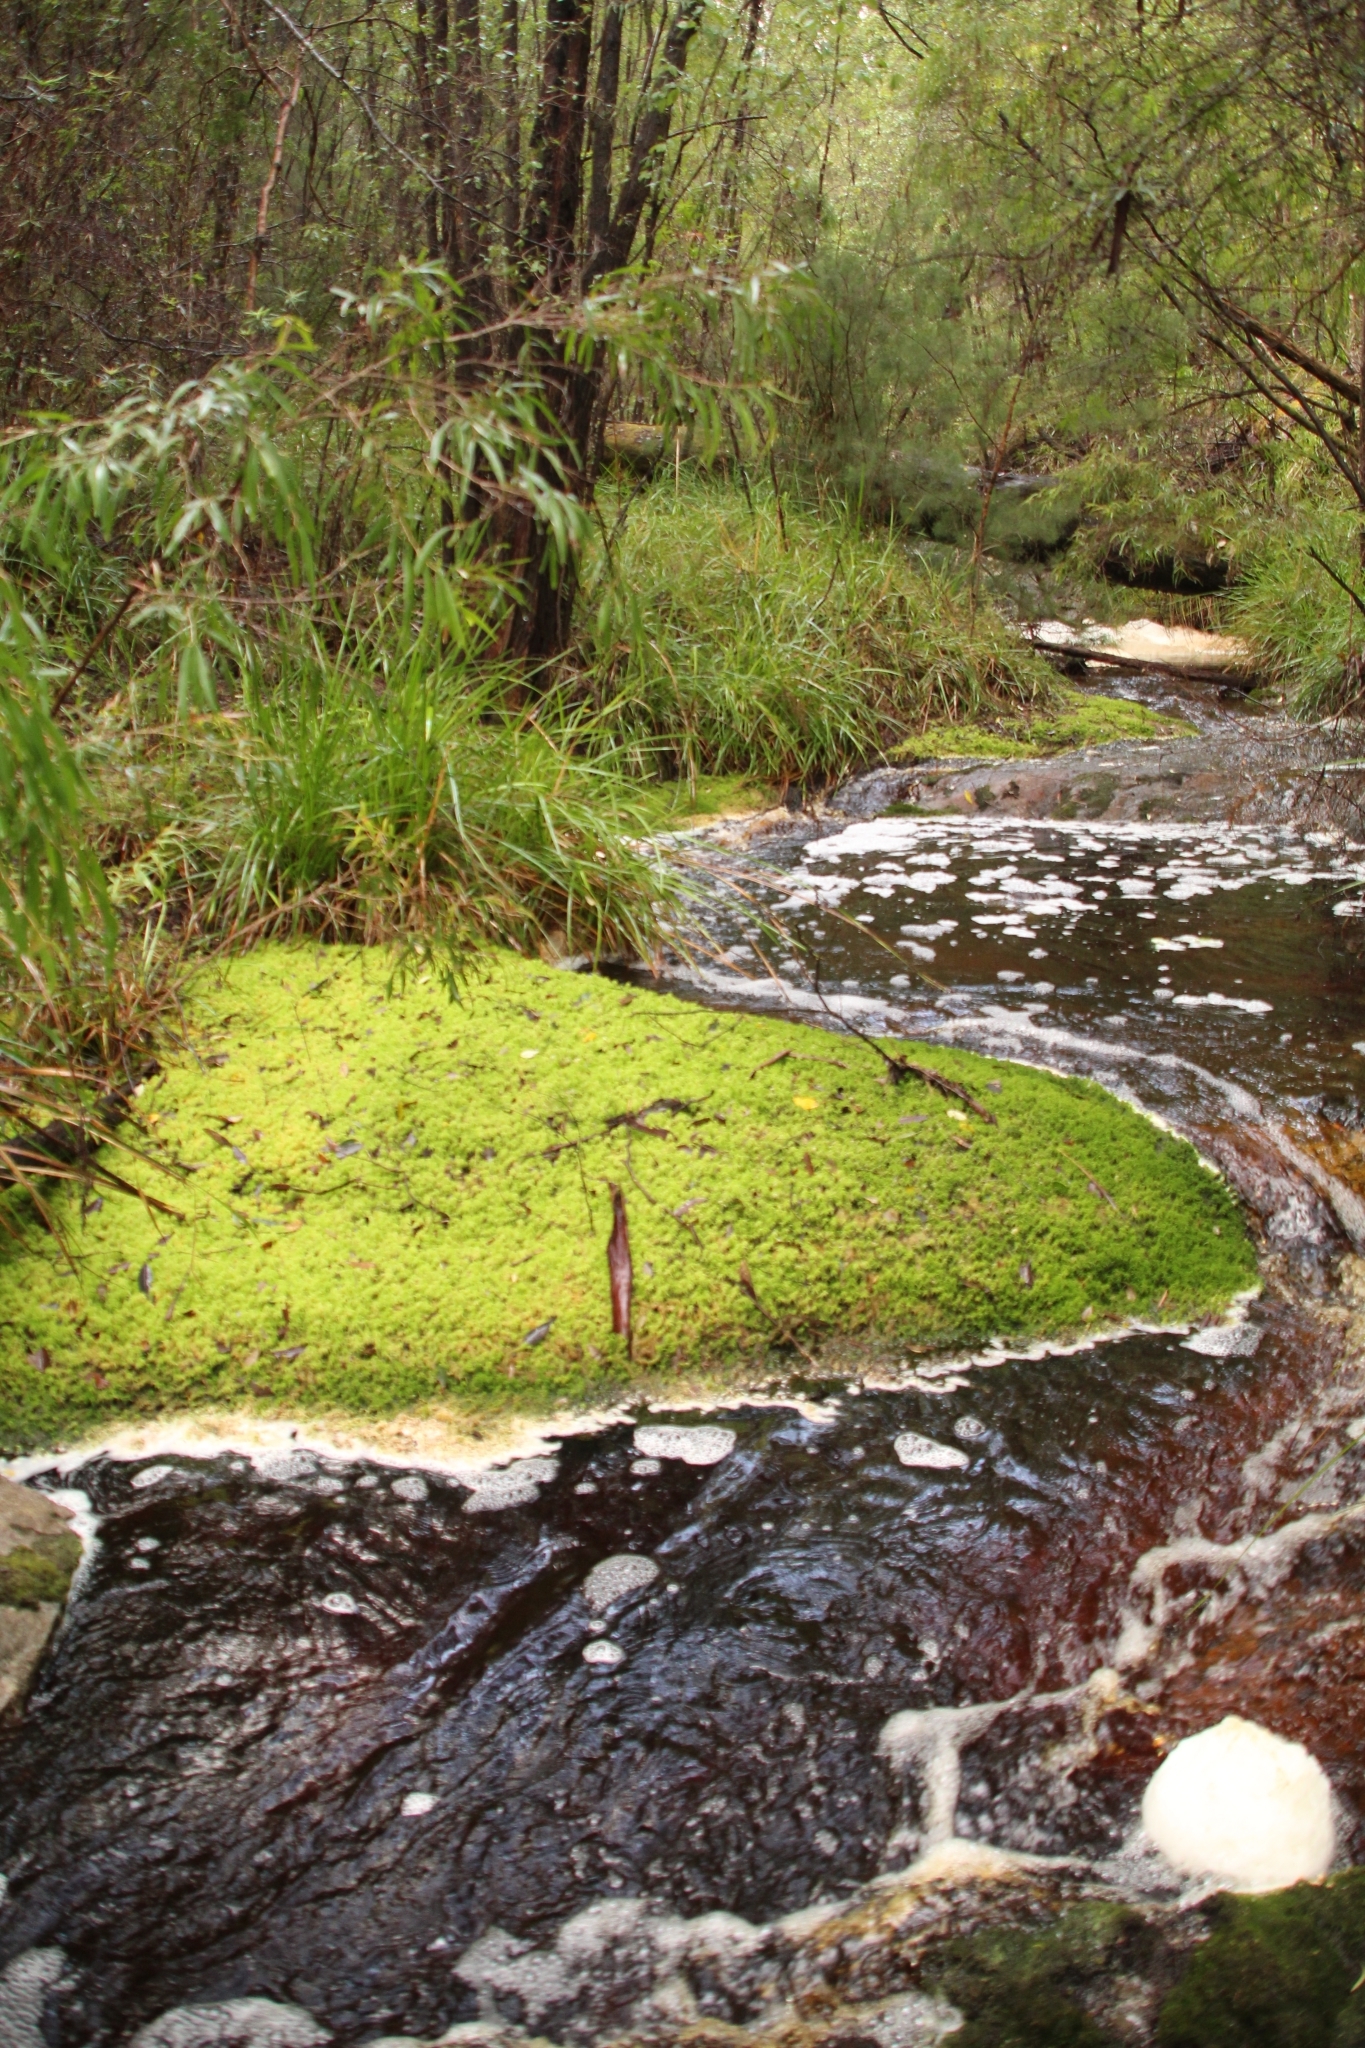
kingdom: Plantae
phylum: Bryophyta
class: Sphagnopsida
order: Sphagnales
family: Sphagnaceae
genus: Sphagnum
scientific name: Sphagnum novozelandicum
